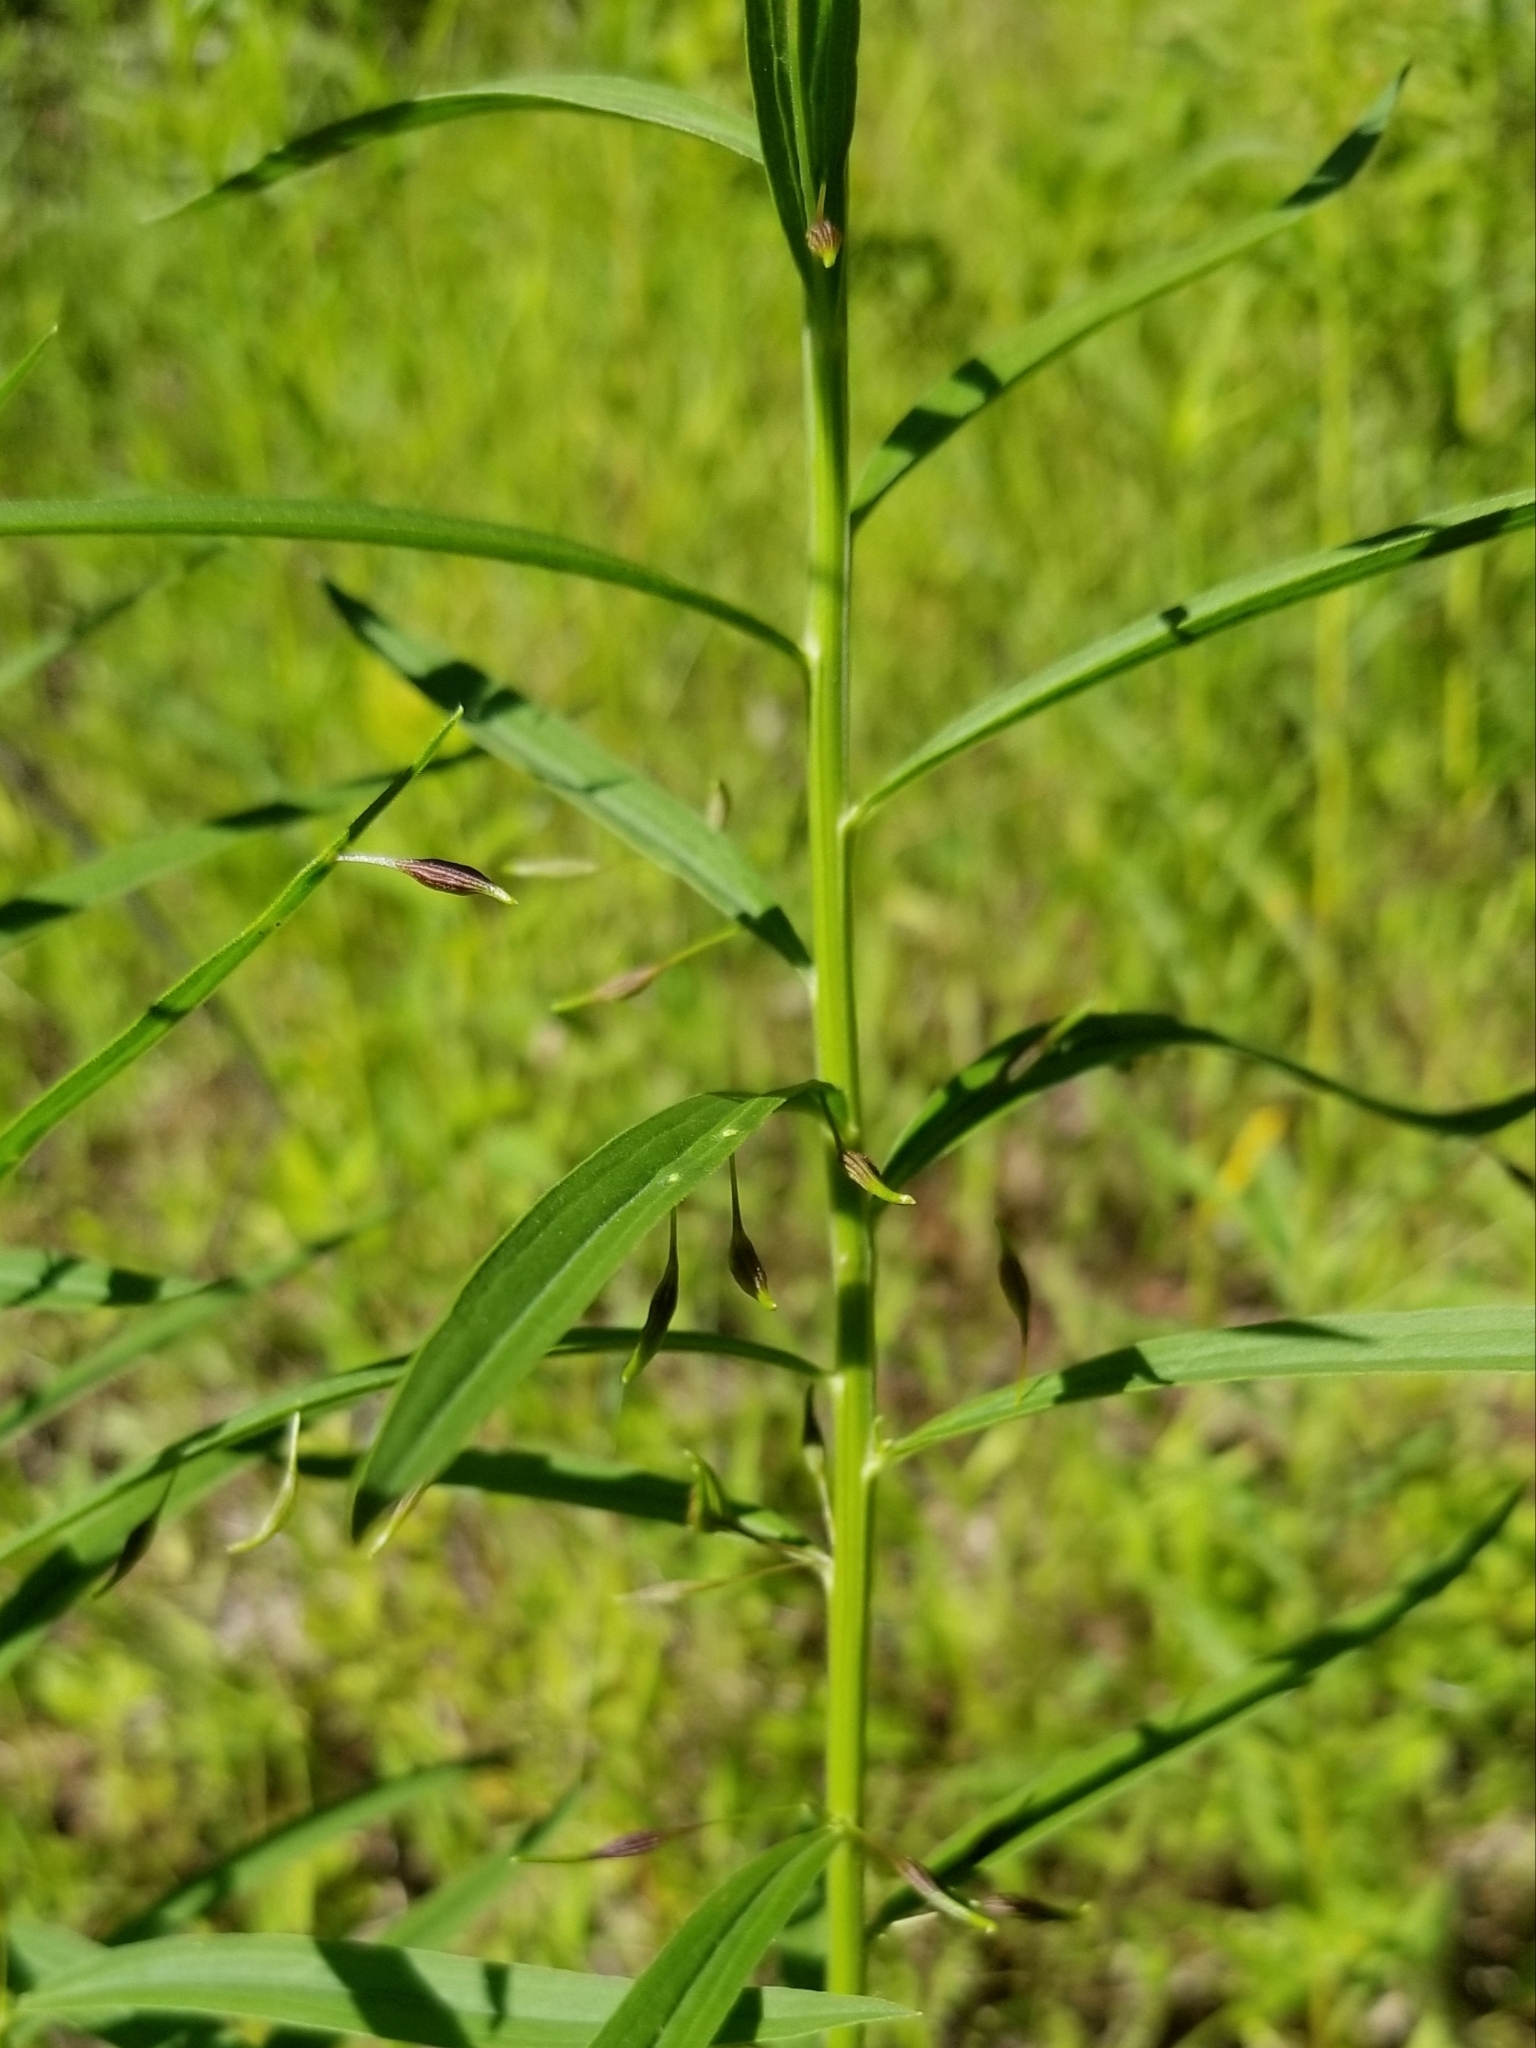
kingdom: Animalia
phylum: Arthropoda
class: Insecta
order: Diptera
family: Cecidomyiidae
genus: Rhopalomyia
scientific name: Rhopalomyia pedicellata
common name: Goldentop pedicellate gall midge
